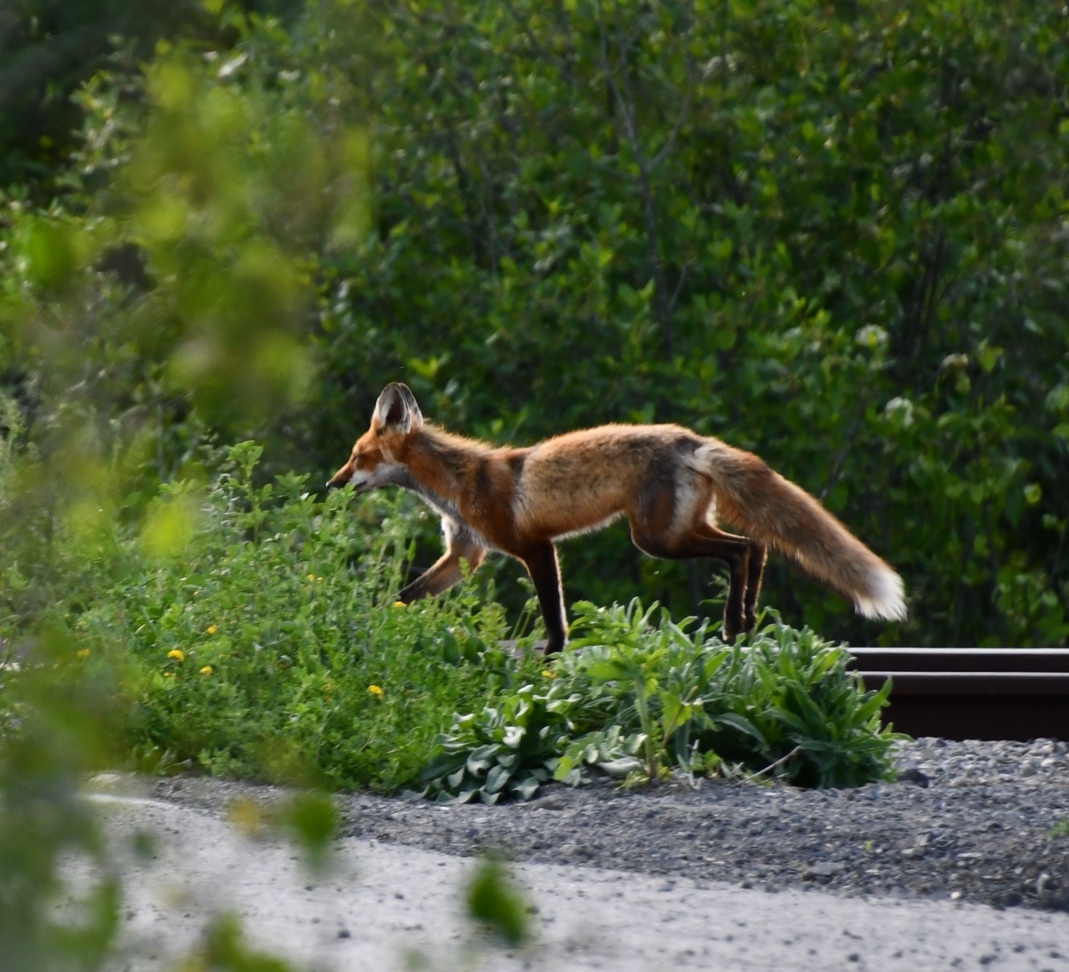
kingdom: Animalia
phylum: Chordata
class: Mammalia
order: Carnivora
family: Canidae
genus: Vulpes
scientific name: Vulpes vulpes
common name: Red fox
